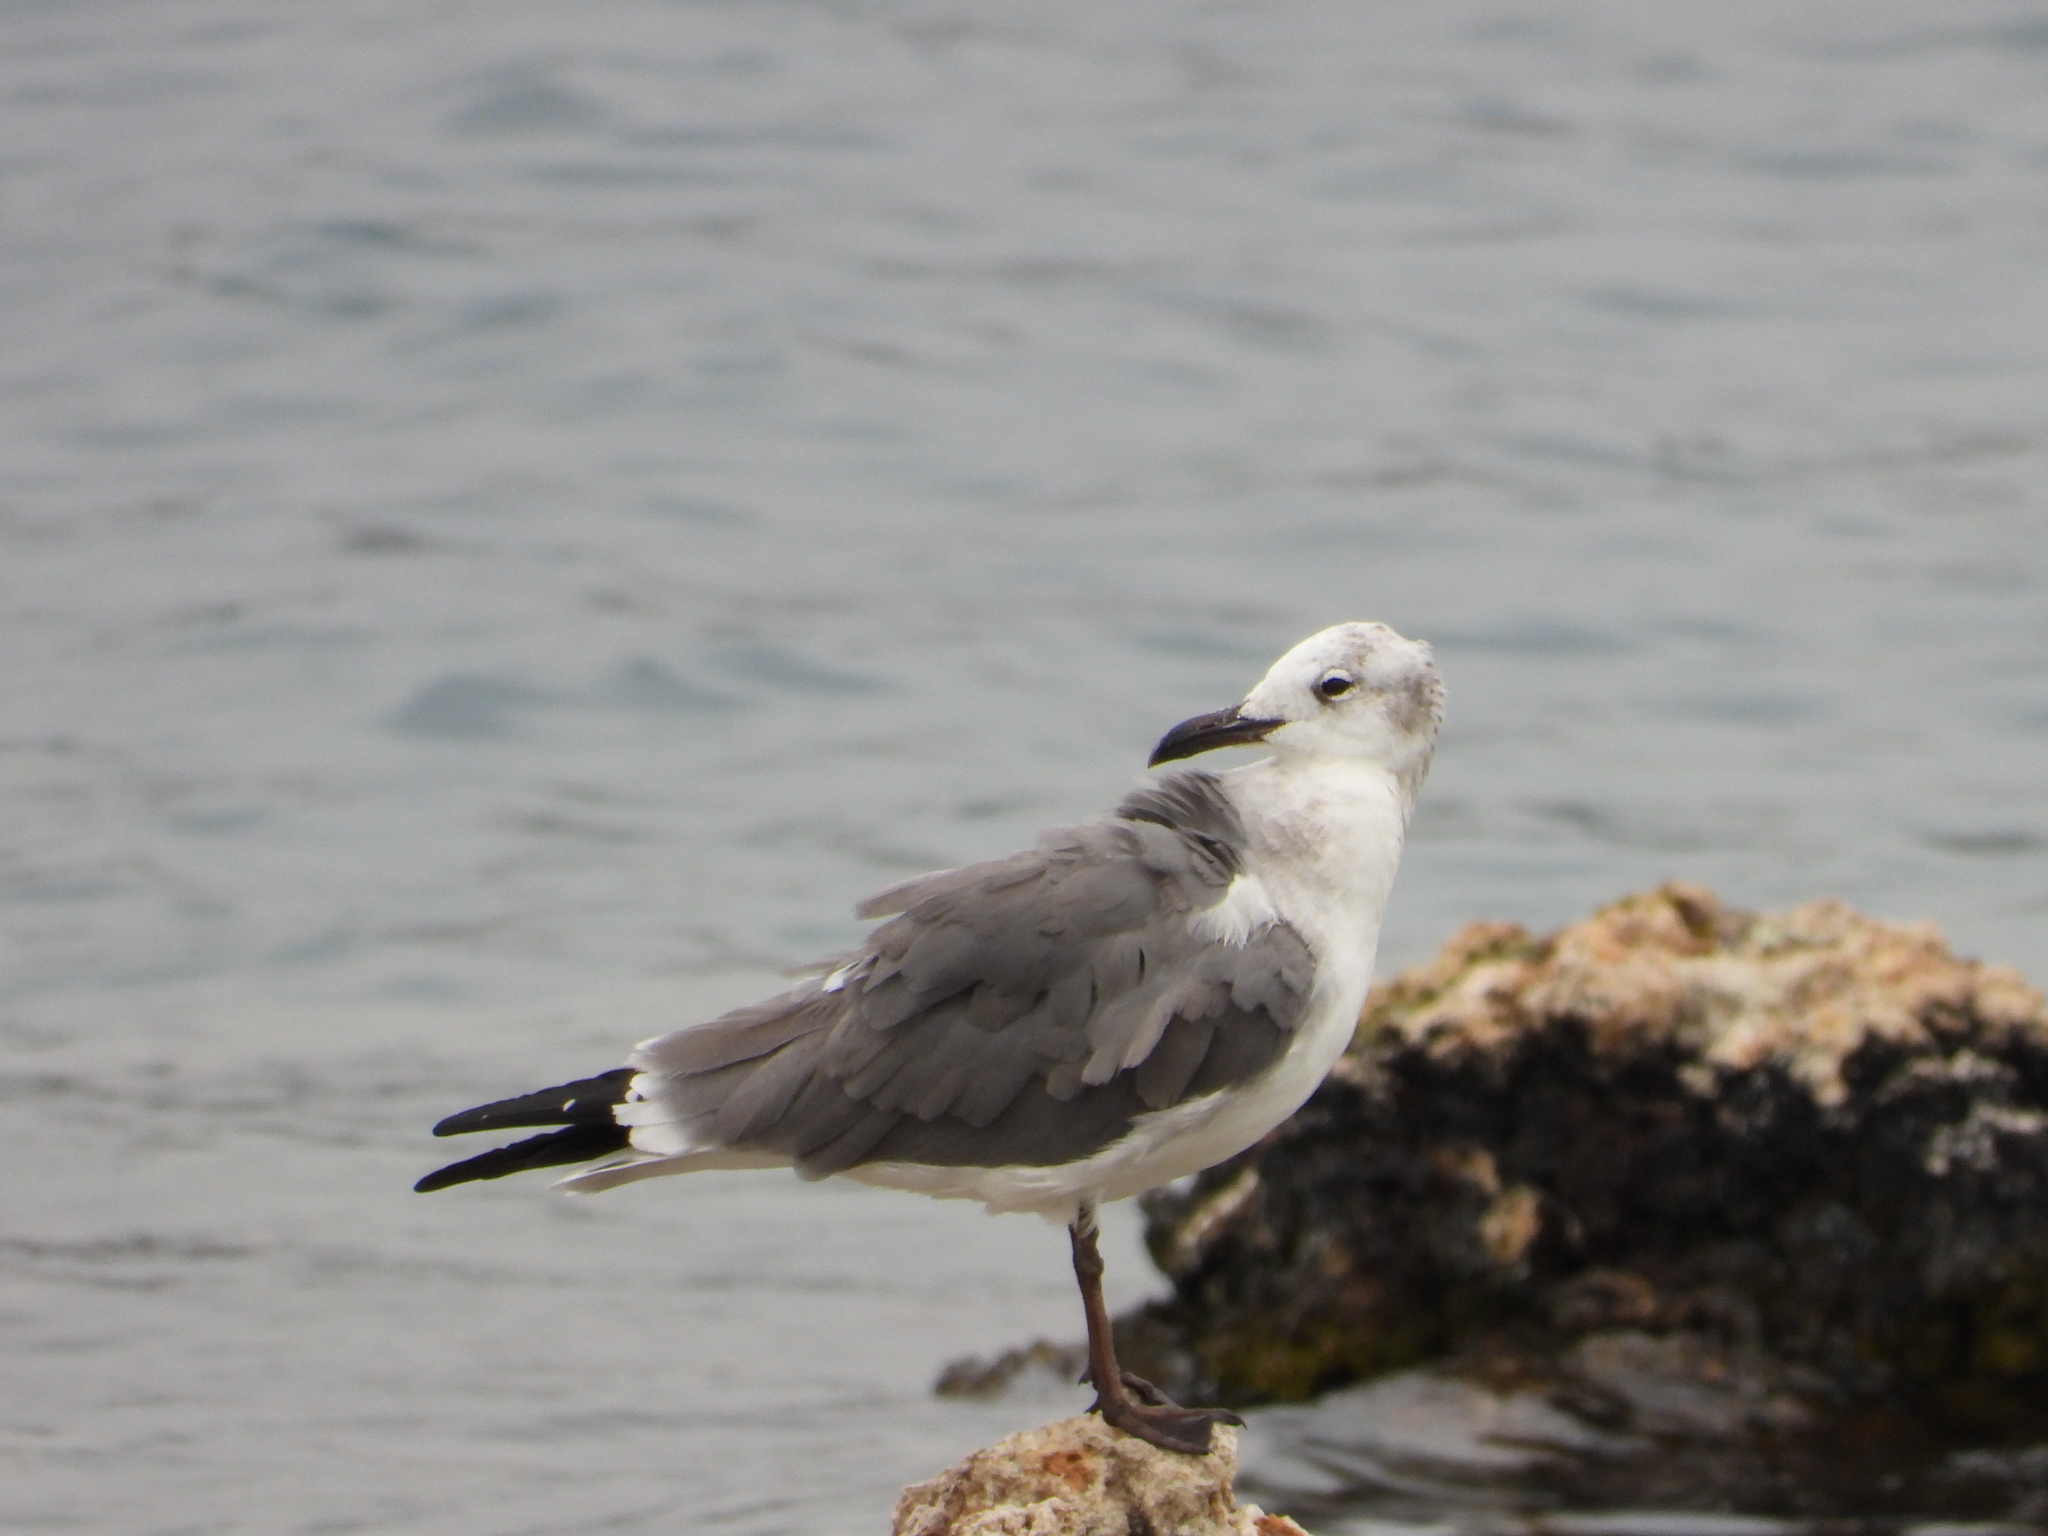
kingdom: Animalia
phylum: Chordata
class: Aves
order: Charadriiformes
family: Laridae
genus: Leucophaeus
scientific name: Leucophaeus atricilla
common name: Laughing gull
